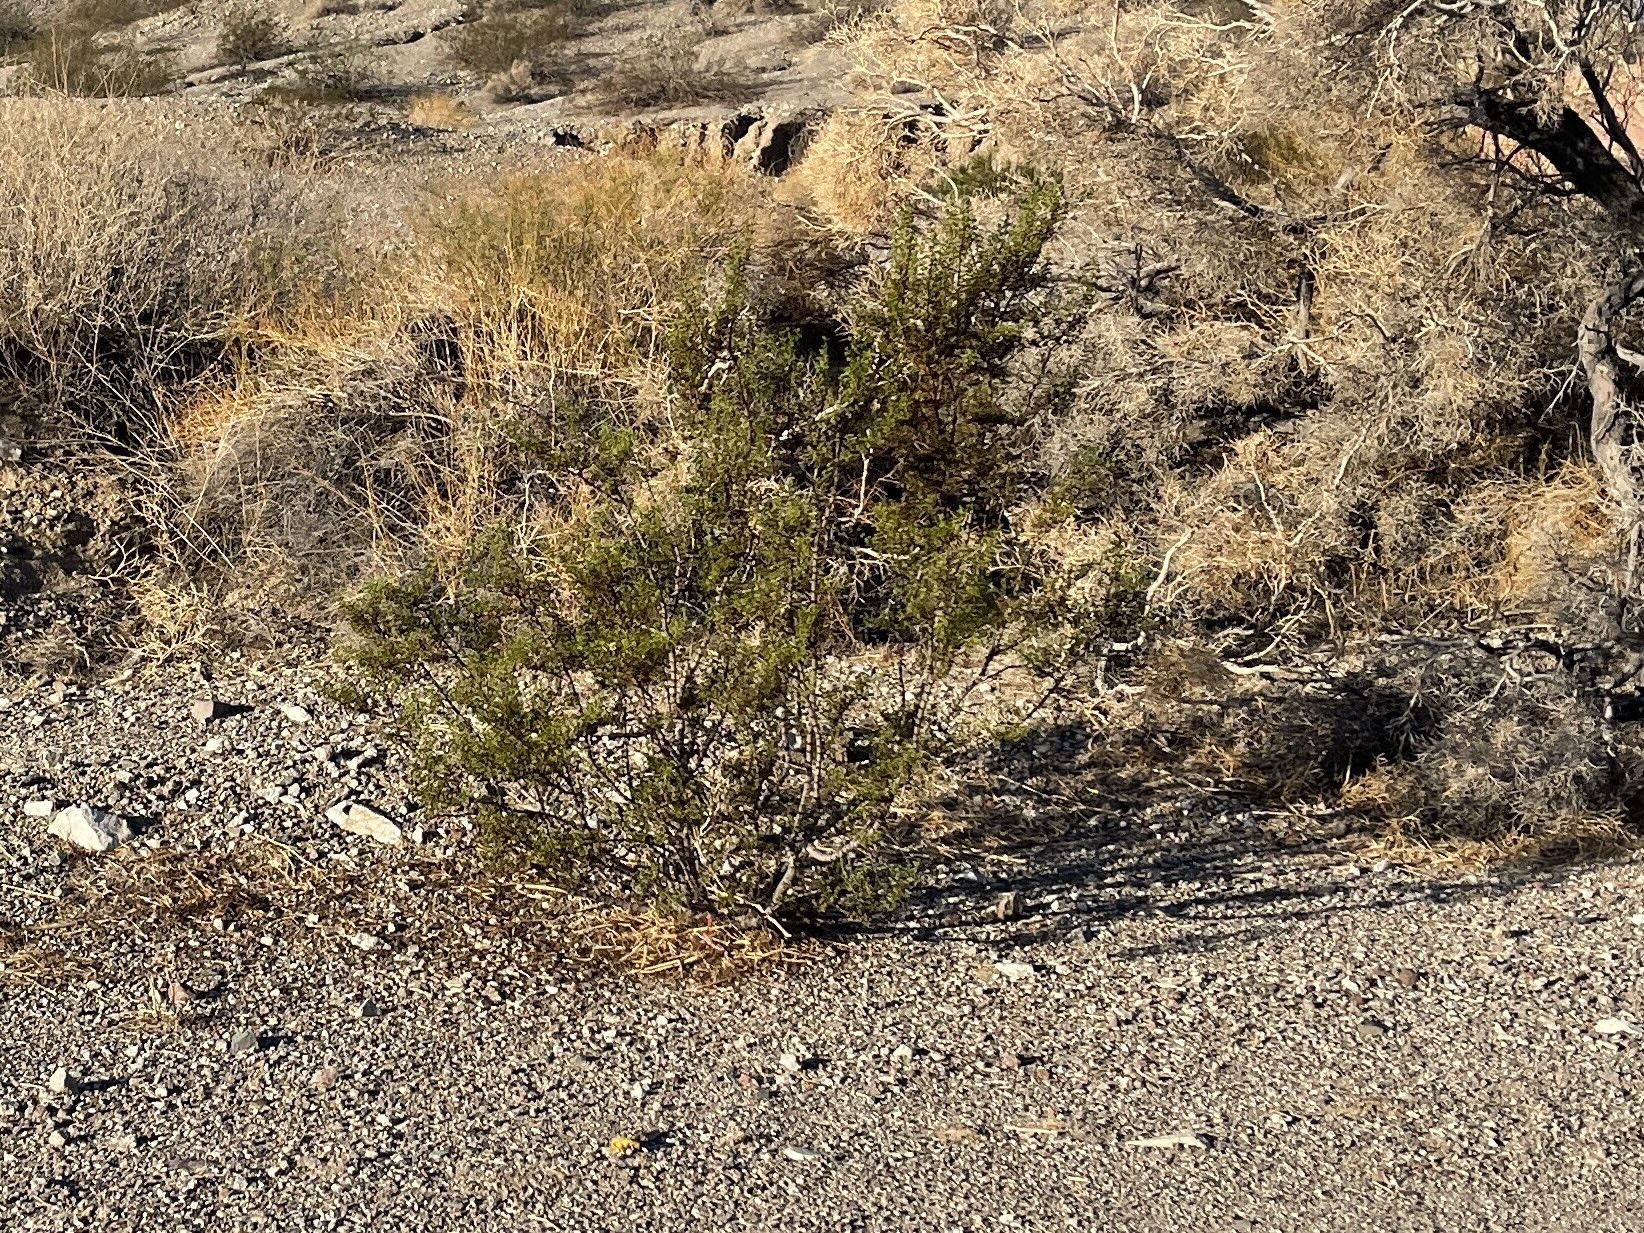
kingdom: Plantae
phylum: Tracheophyta
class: Magnoliopsida
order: Zygophyllales
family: Zygophyllaceae
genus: Larrea
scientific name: Larrea tridentata
